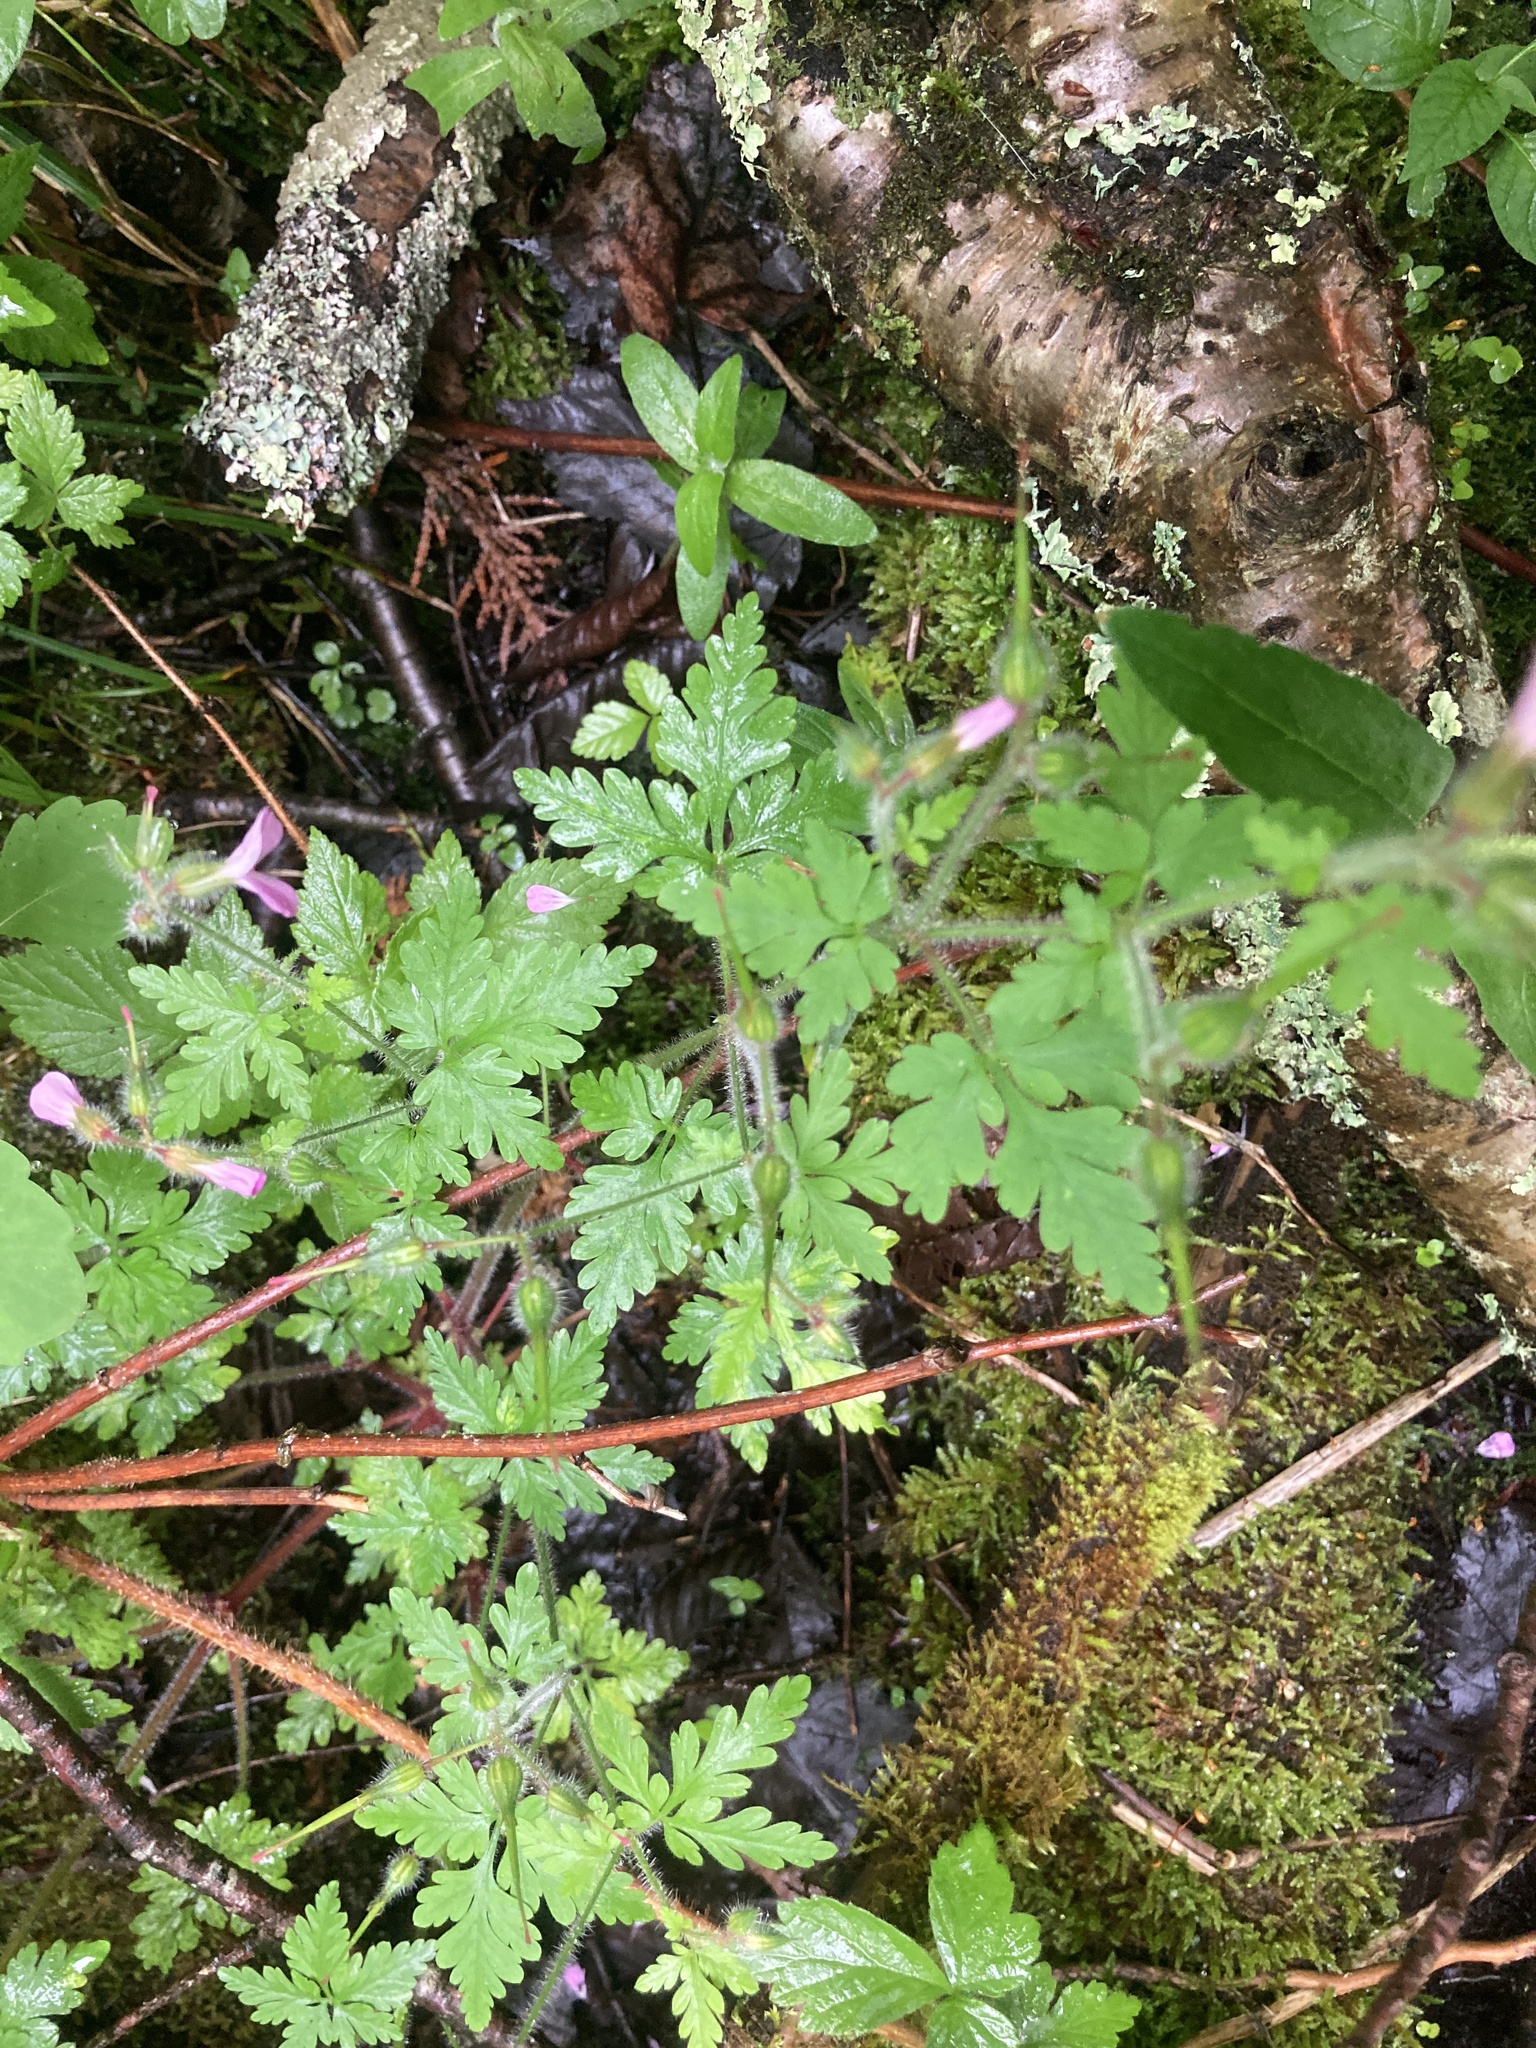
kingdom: Plantae
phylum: Tracheophyta
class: Magnoliopsida
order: Geraniales
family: Geraniaceae
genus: Geranium
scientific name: Geranium robertianum
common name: Herb-robert
